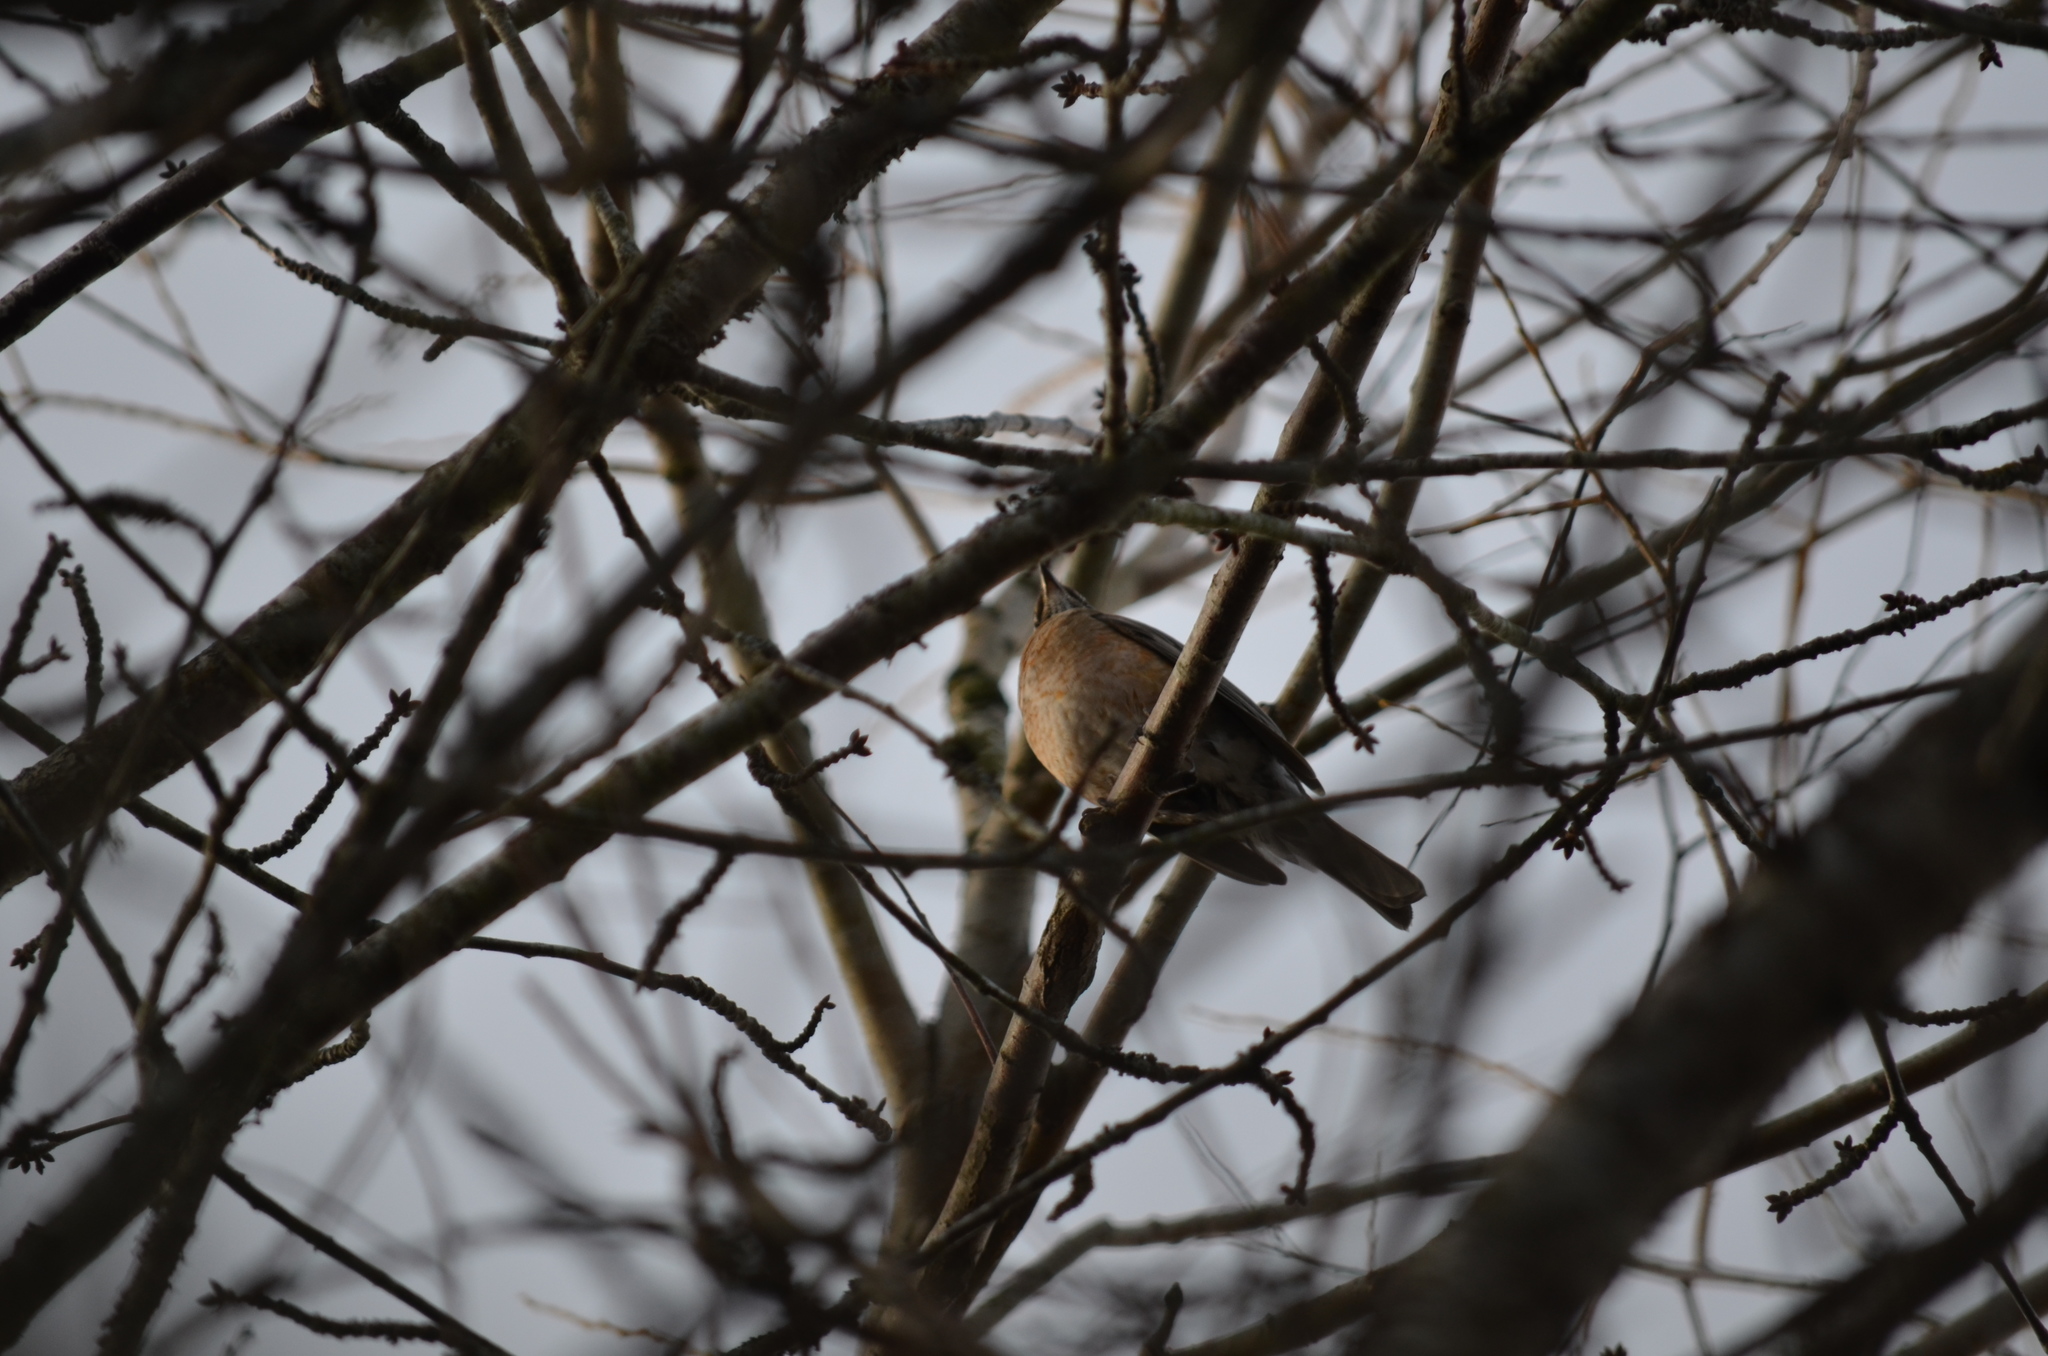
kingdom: Animalia
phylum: Chordata
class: Aves
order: Passeriformes
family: Turdidae
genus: Turdus
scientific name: Turdus migratorius
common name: American robin
